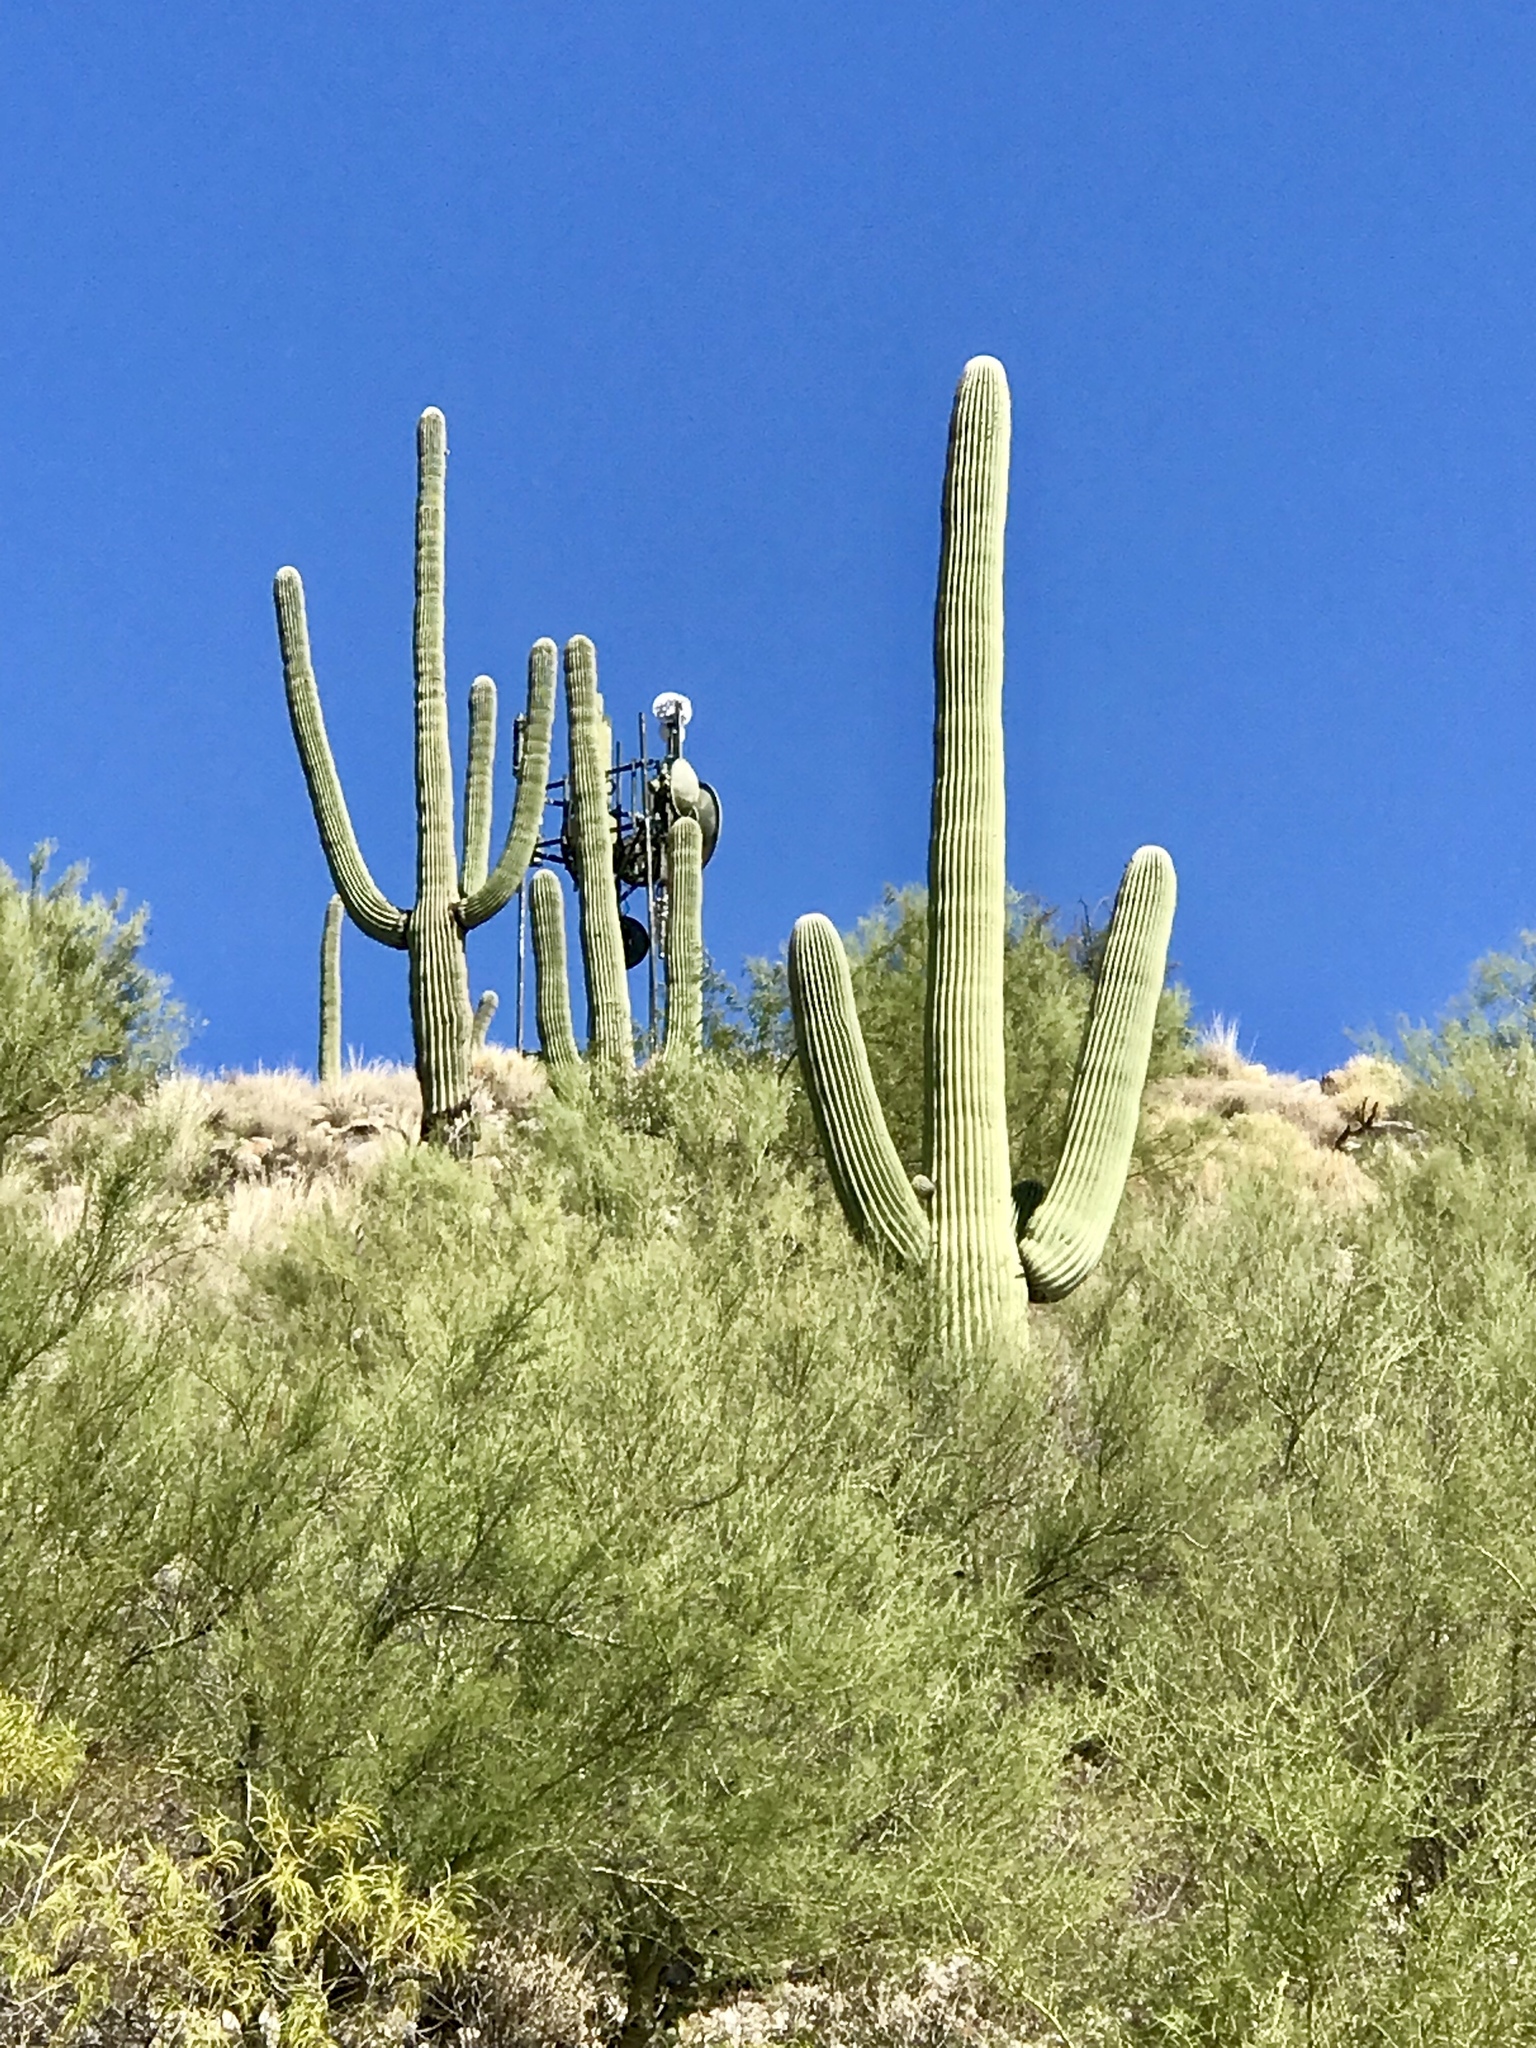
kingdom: Plantae
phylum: Tracheophyta
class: Magnoliopsida
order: Caryophyllales
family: Cactaceae
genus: Carnegiea
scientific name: Carnegiea gigantea
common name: Saguaro
